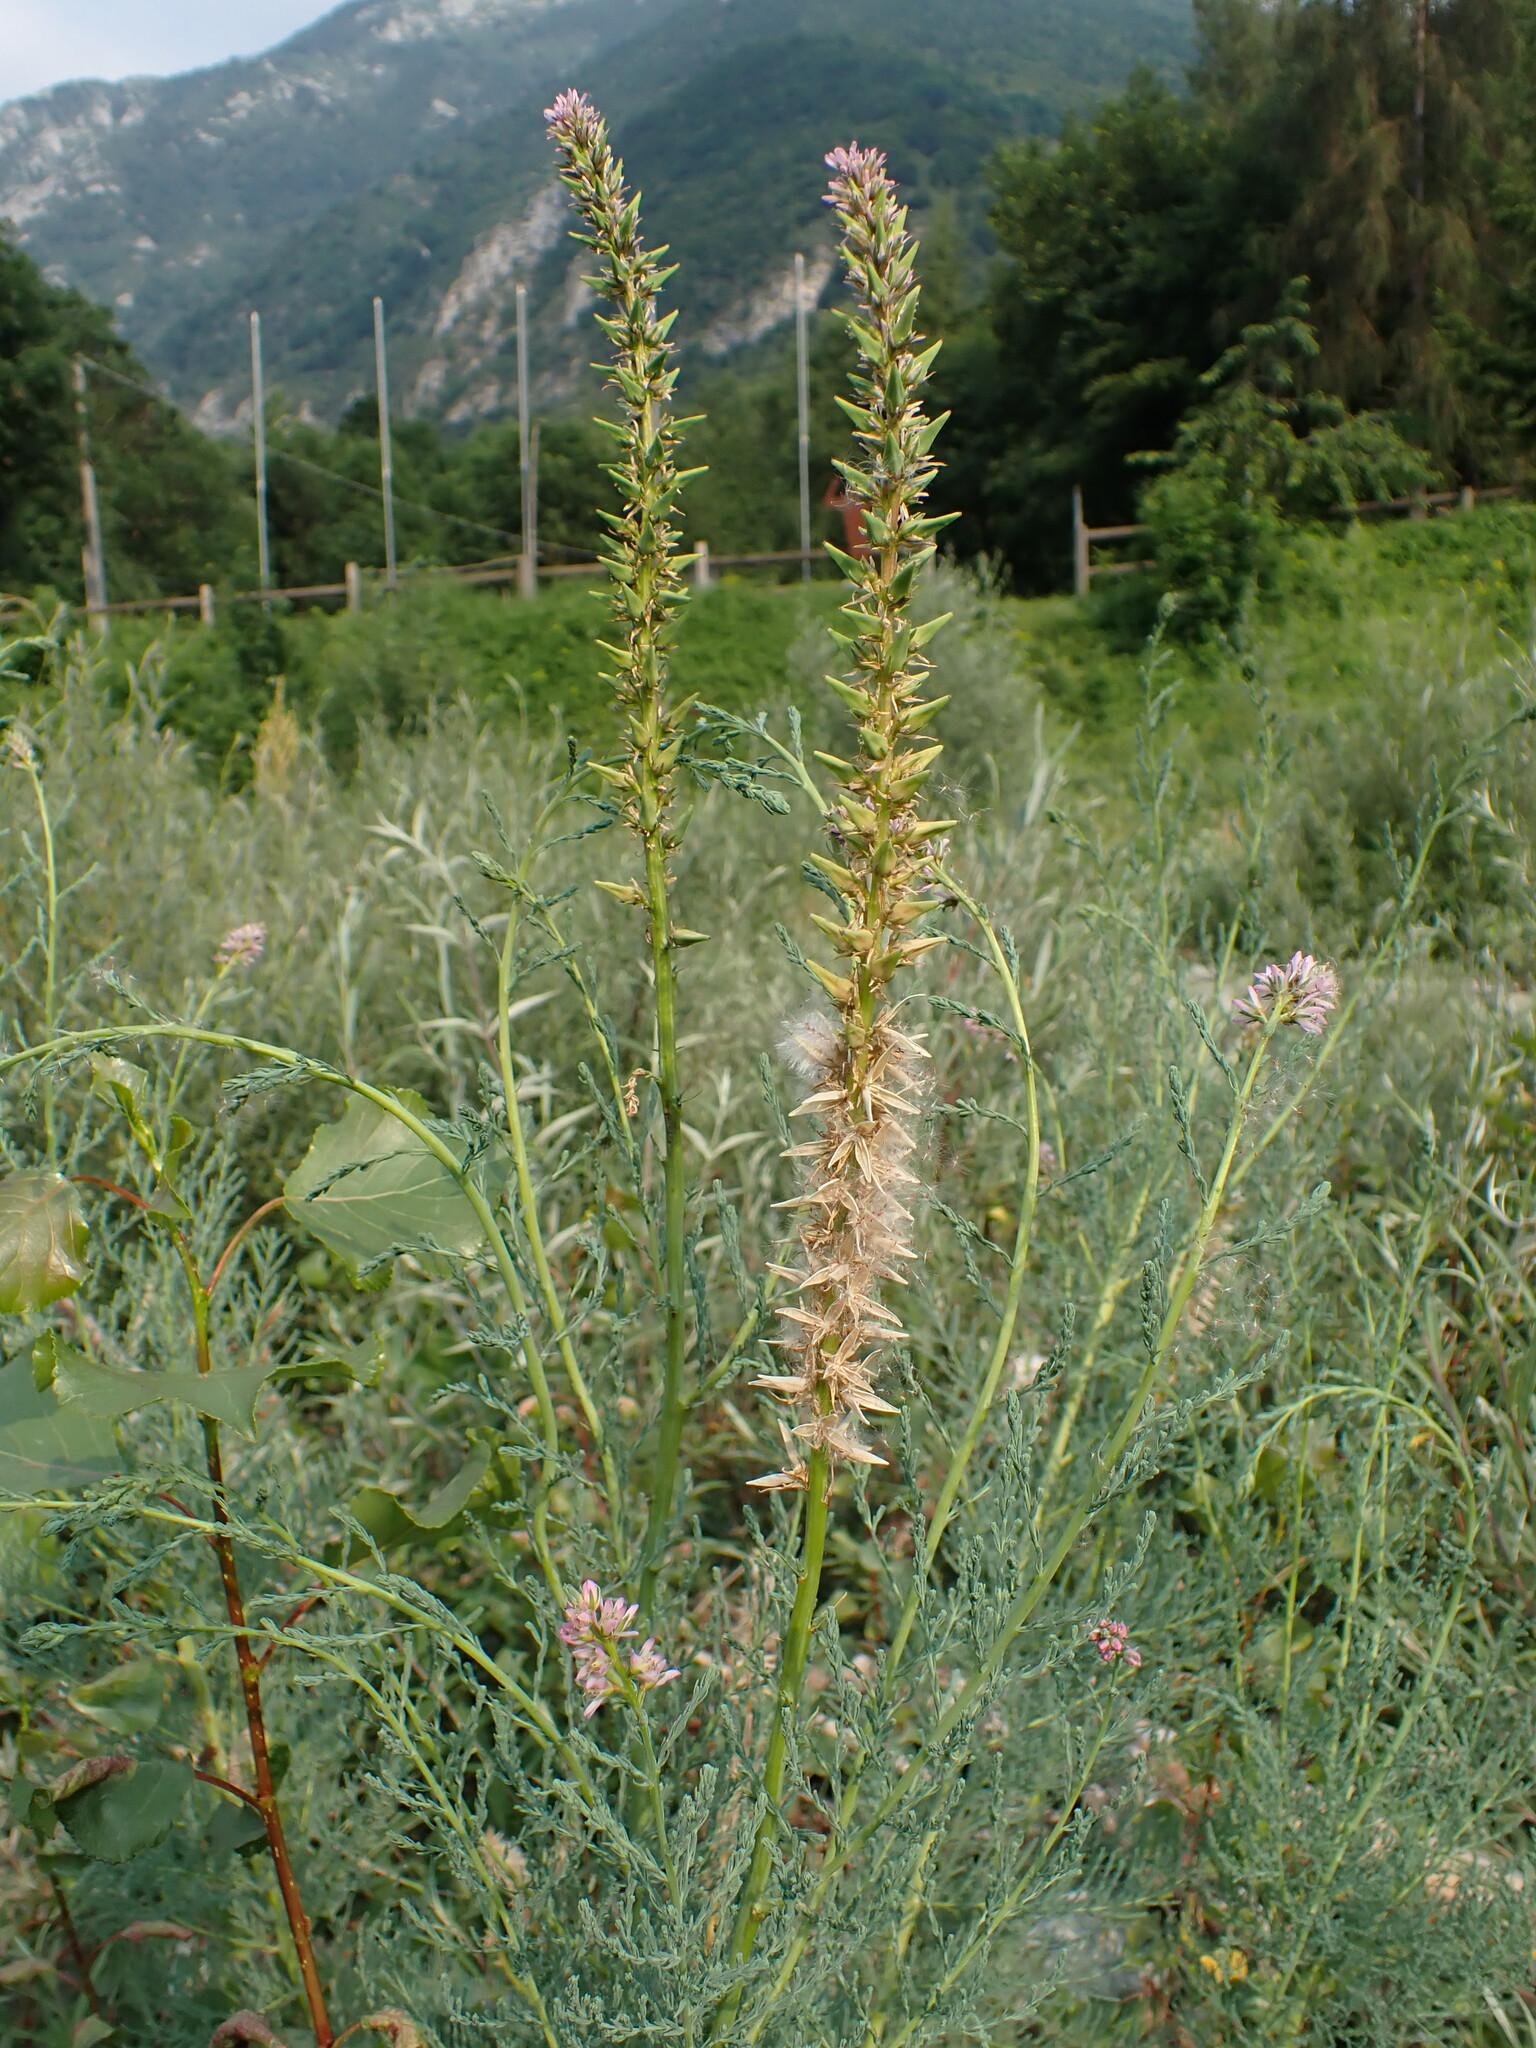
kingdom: Plantae
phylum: Tracheophyta
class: Magnoliopsida
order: Caryophyllales
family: Tamaricaceae
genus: Myricaria
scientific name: Myricaria germanica
